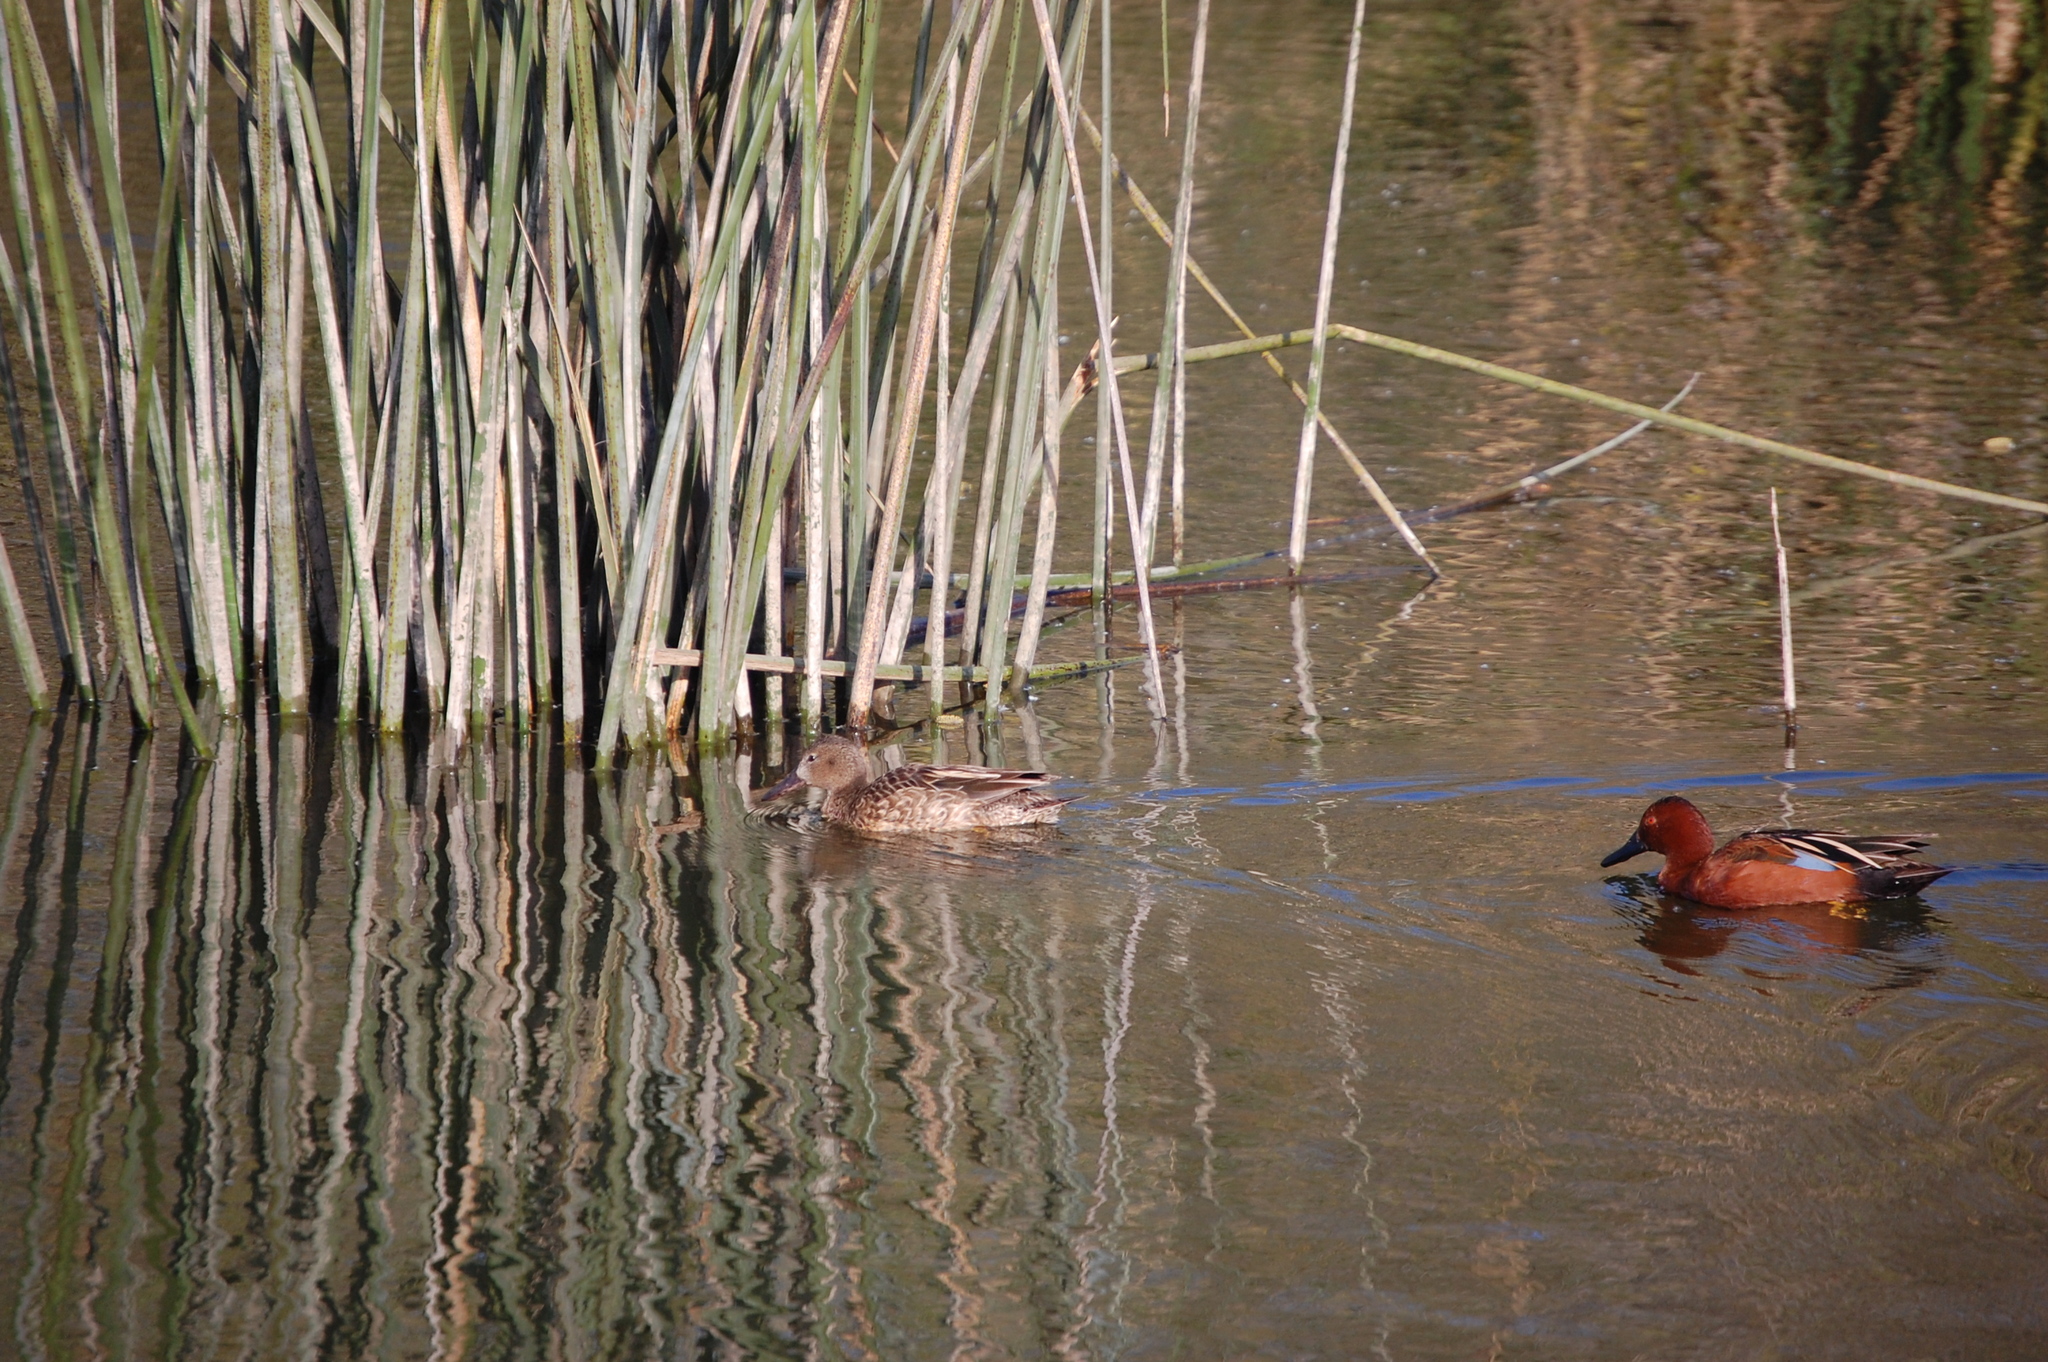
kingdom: Animalia
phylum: Chordata
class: Aves
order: Anseriformes
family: Anatidae
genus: Spatula
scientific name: Spatula cyanoptera
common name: Cinnamon teal
